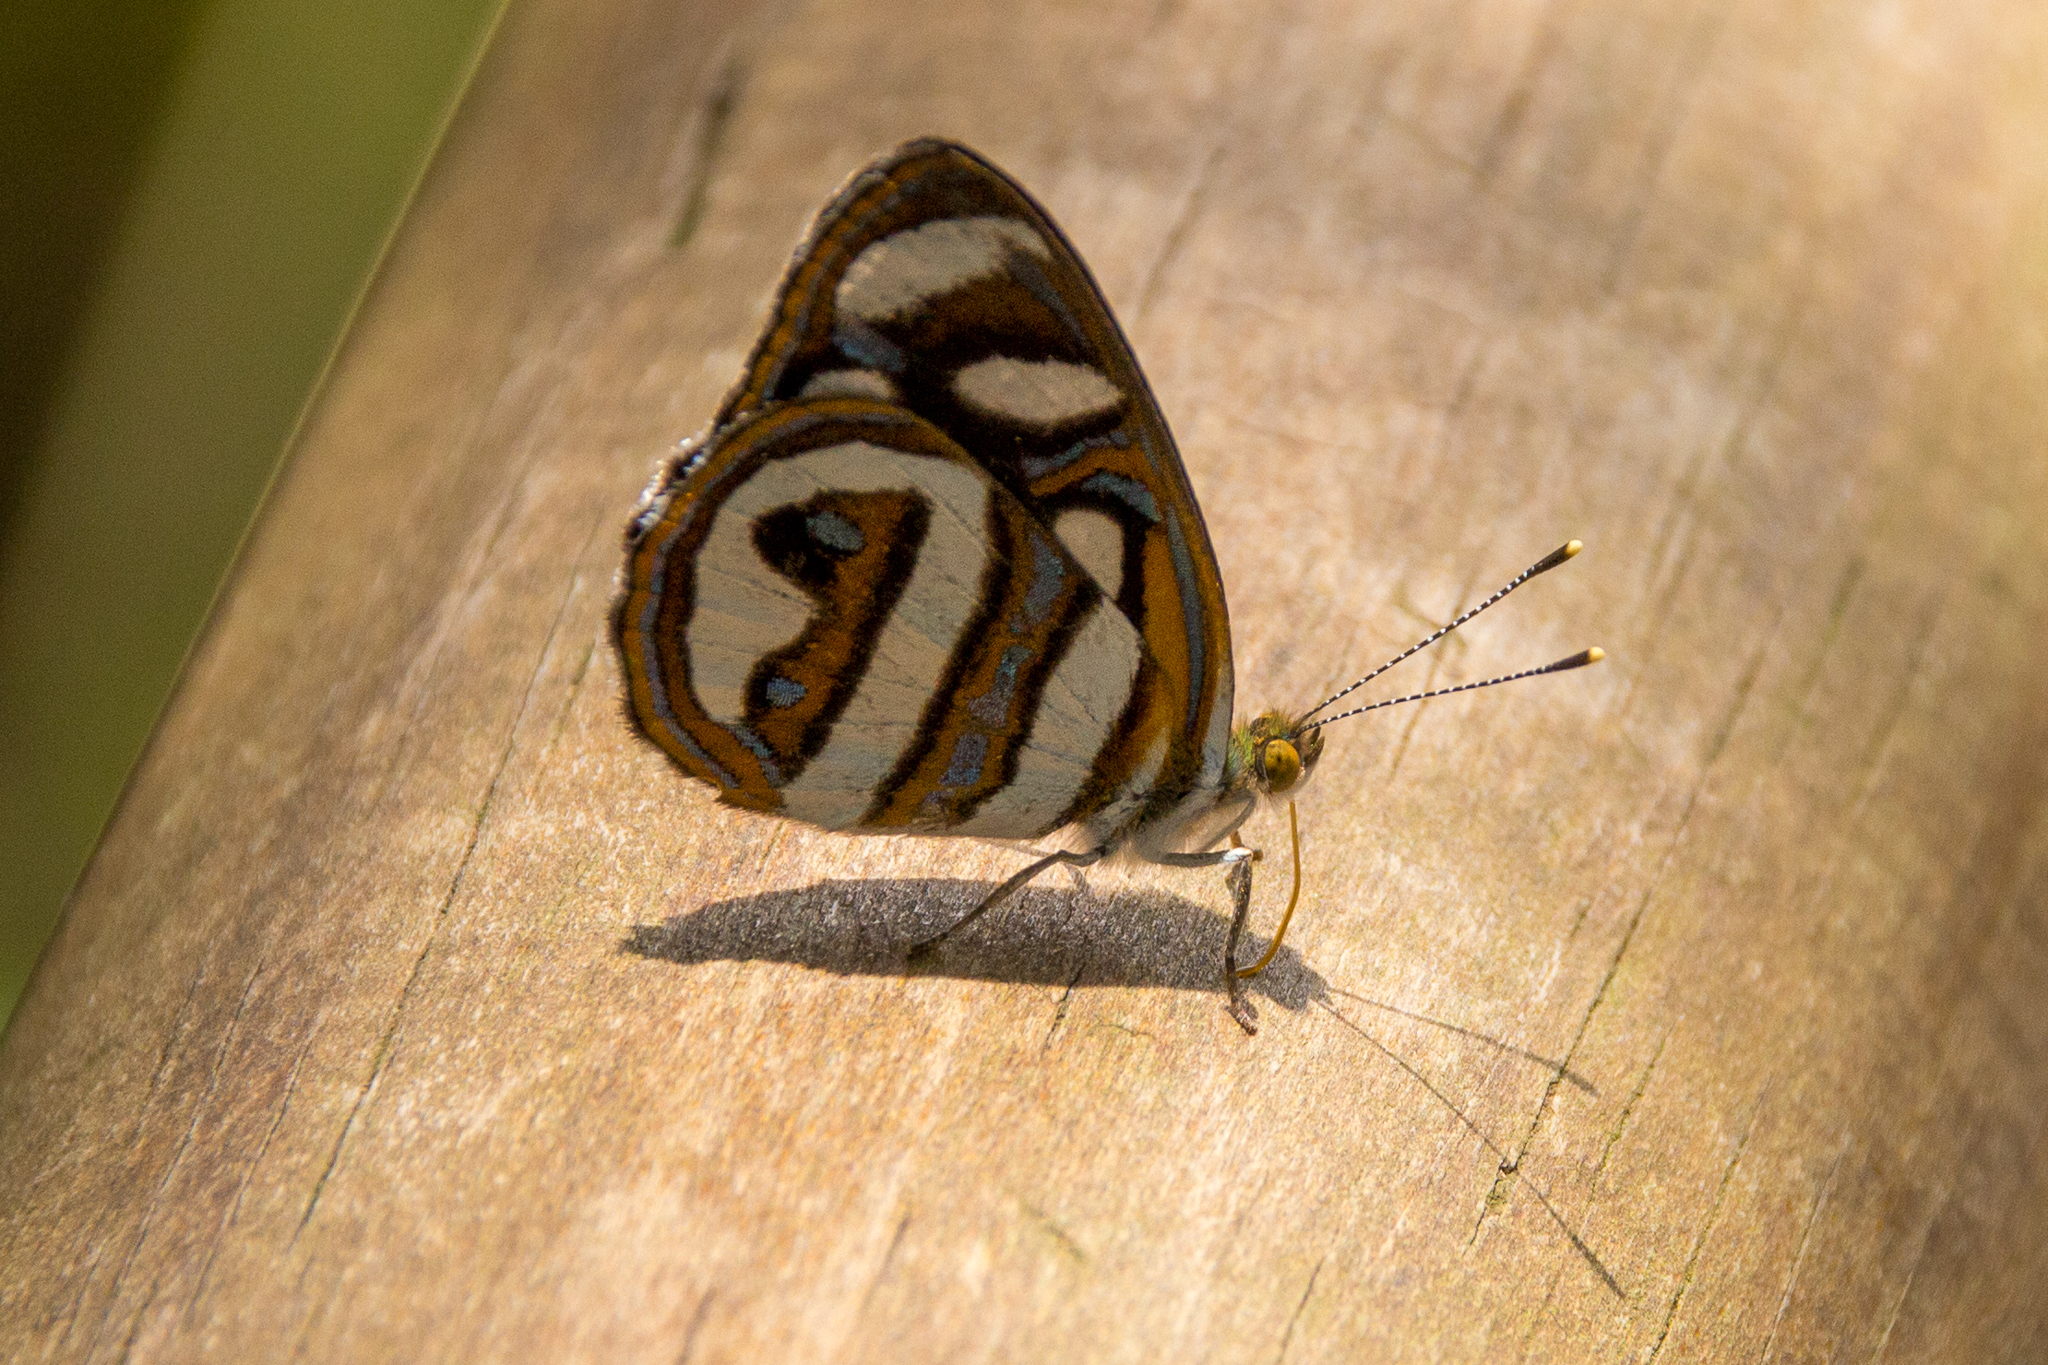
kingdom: Animalia
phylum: Arthropoda
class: Insecta
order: Lepidoptera
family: Nymphalidae
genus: Dynamine
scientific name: Dynamine artemisia
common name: Small-eyed sailor
